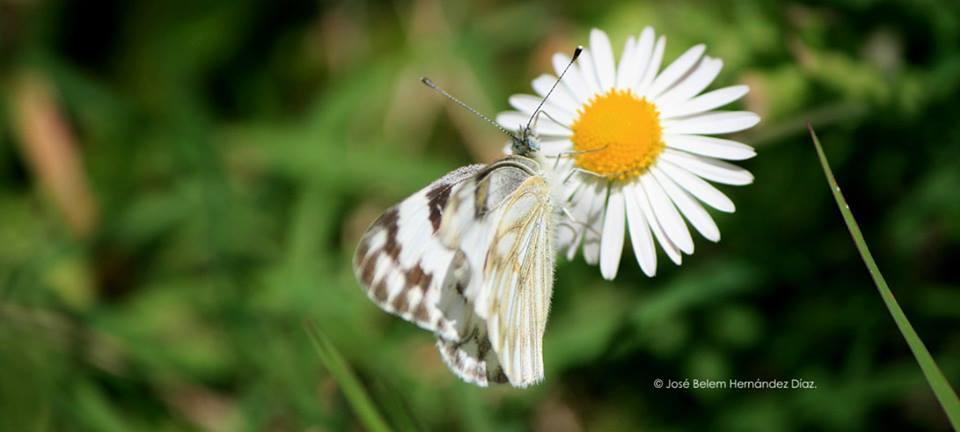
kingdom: Animalia
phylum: Arthropoda
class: Insecta
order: Lepidoptera
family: Pieridae
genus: Pontia
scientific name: Pontia protodice
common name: Checkered white
